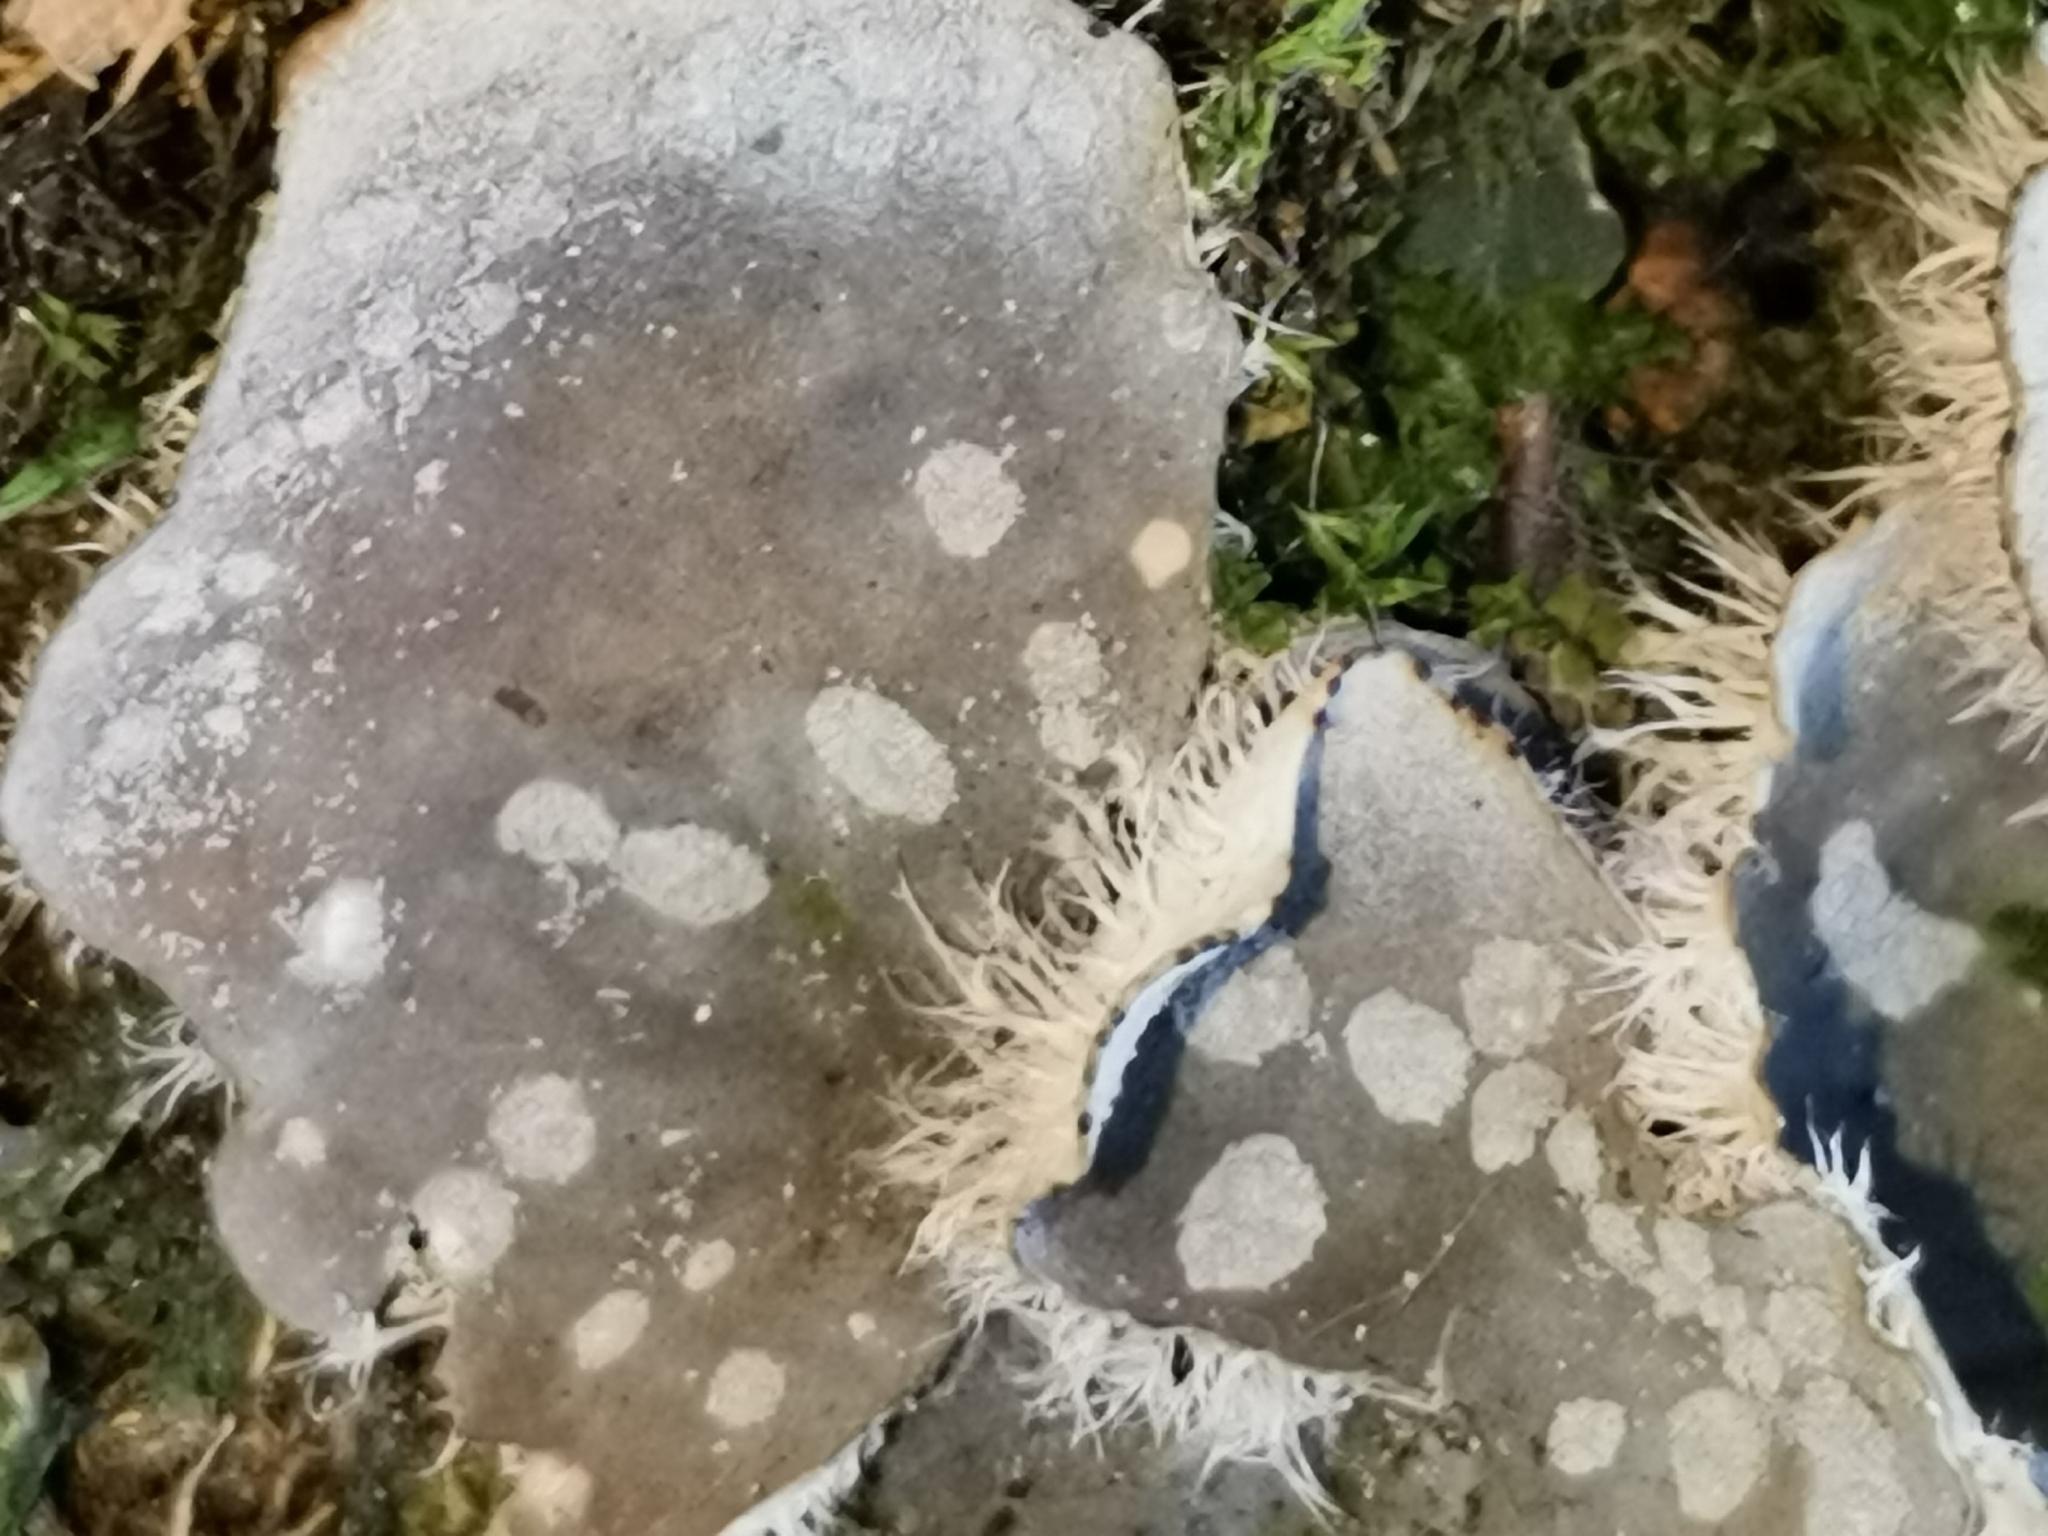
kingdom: Fungi
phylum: Ascomycota
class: Lecanoromycetes
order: Peltigerales
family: Peltigeraceae
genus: Peltigera
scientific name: Peltigera extenuata
